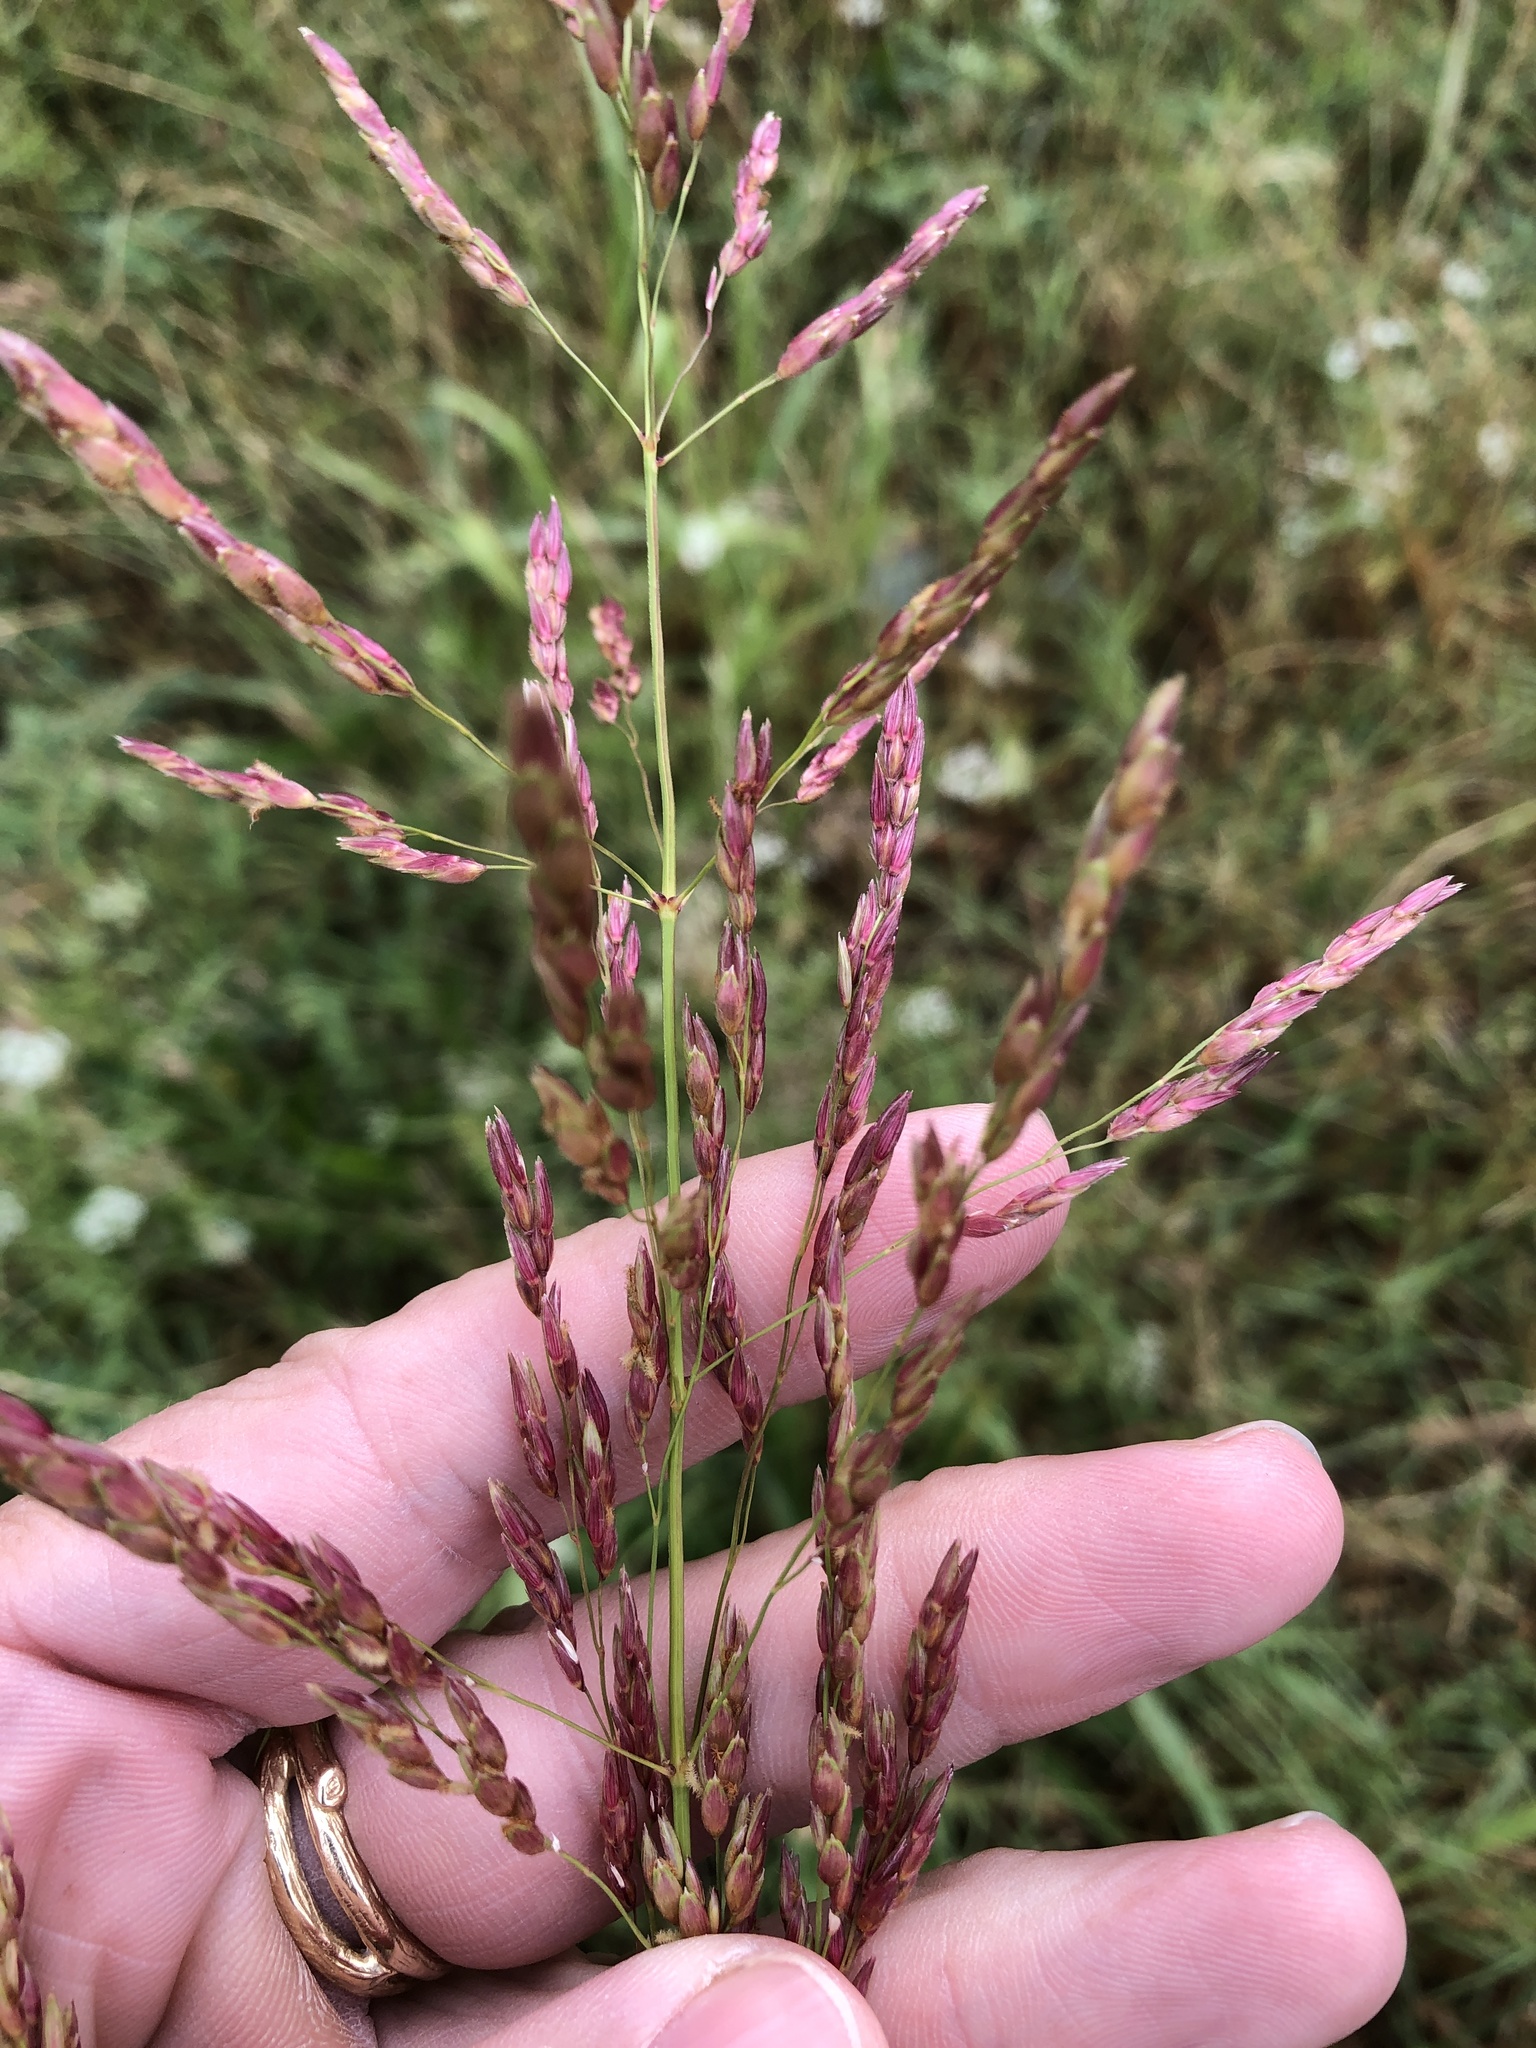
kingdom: Plantae
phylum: Tracheophyta
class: Liliopsida
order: Poales
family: Poaceae
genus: Sorghum
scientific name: Sorghum halepense
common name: Johnson-grass
